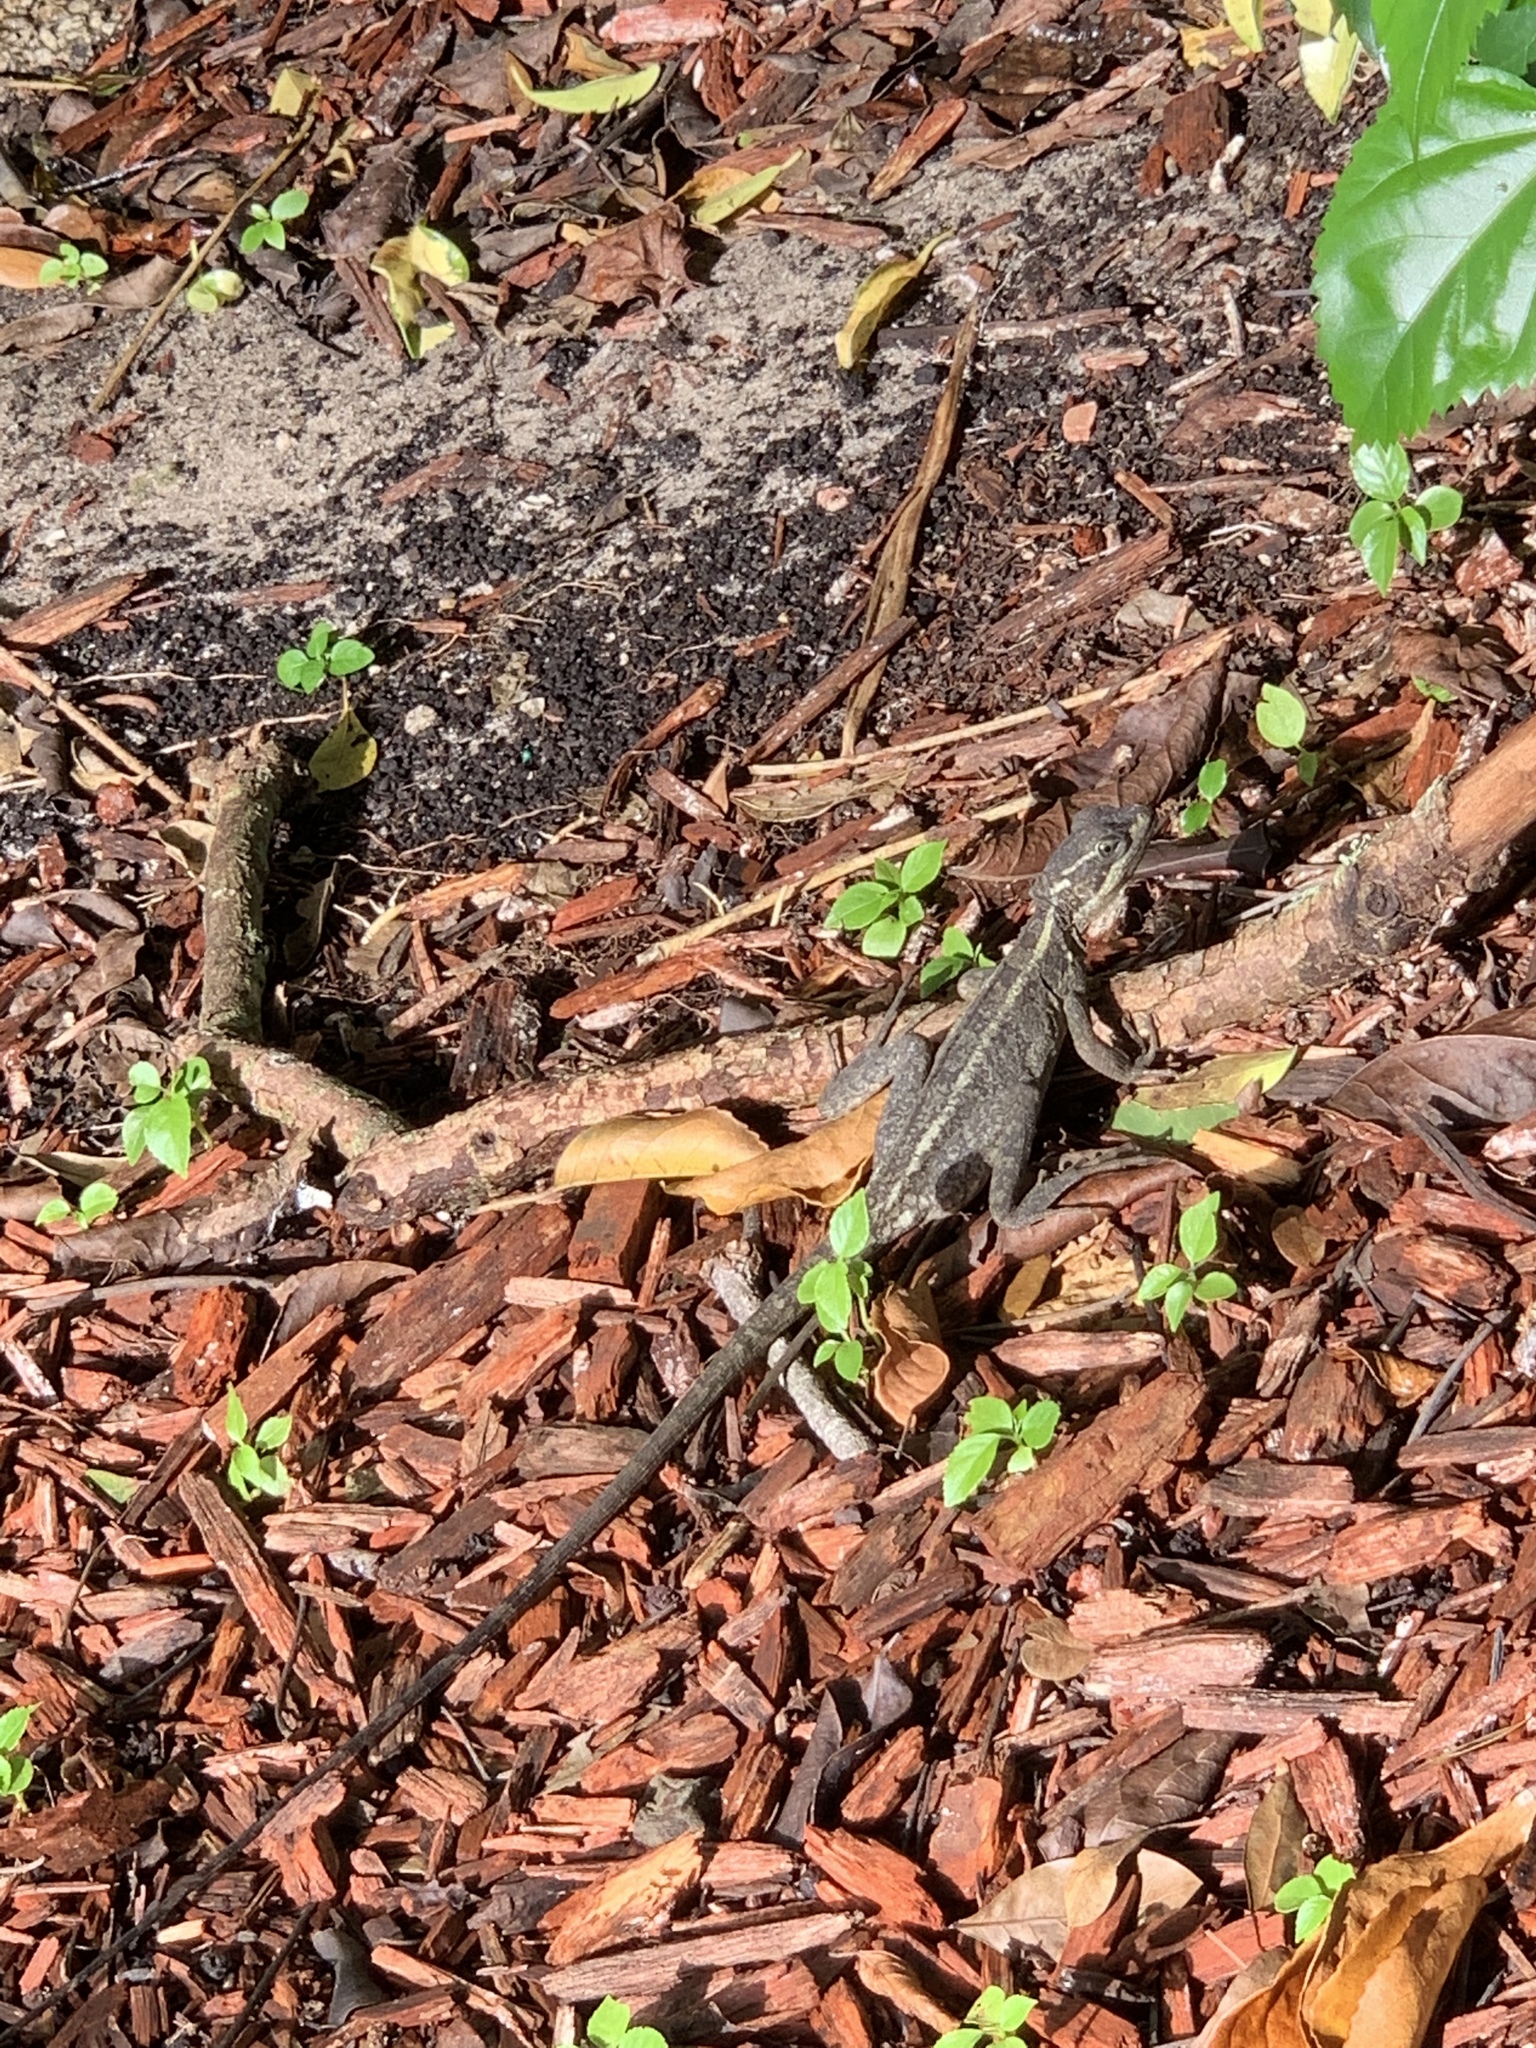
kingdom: Animalia
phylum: Chordata
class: Squamata
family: Corytophanidae
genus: Basiliscus
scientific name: Basiliscus vittatus
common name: Brown basilisk
